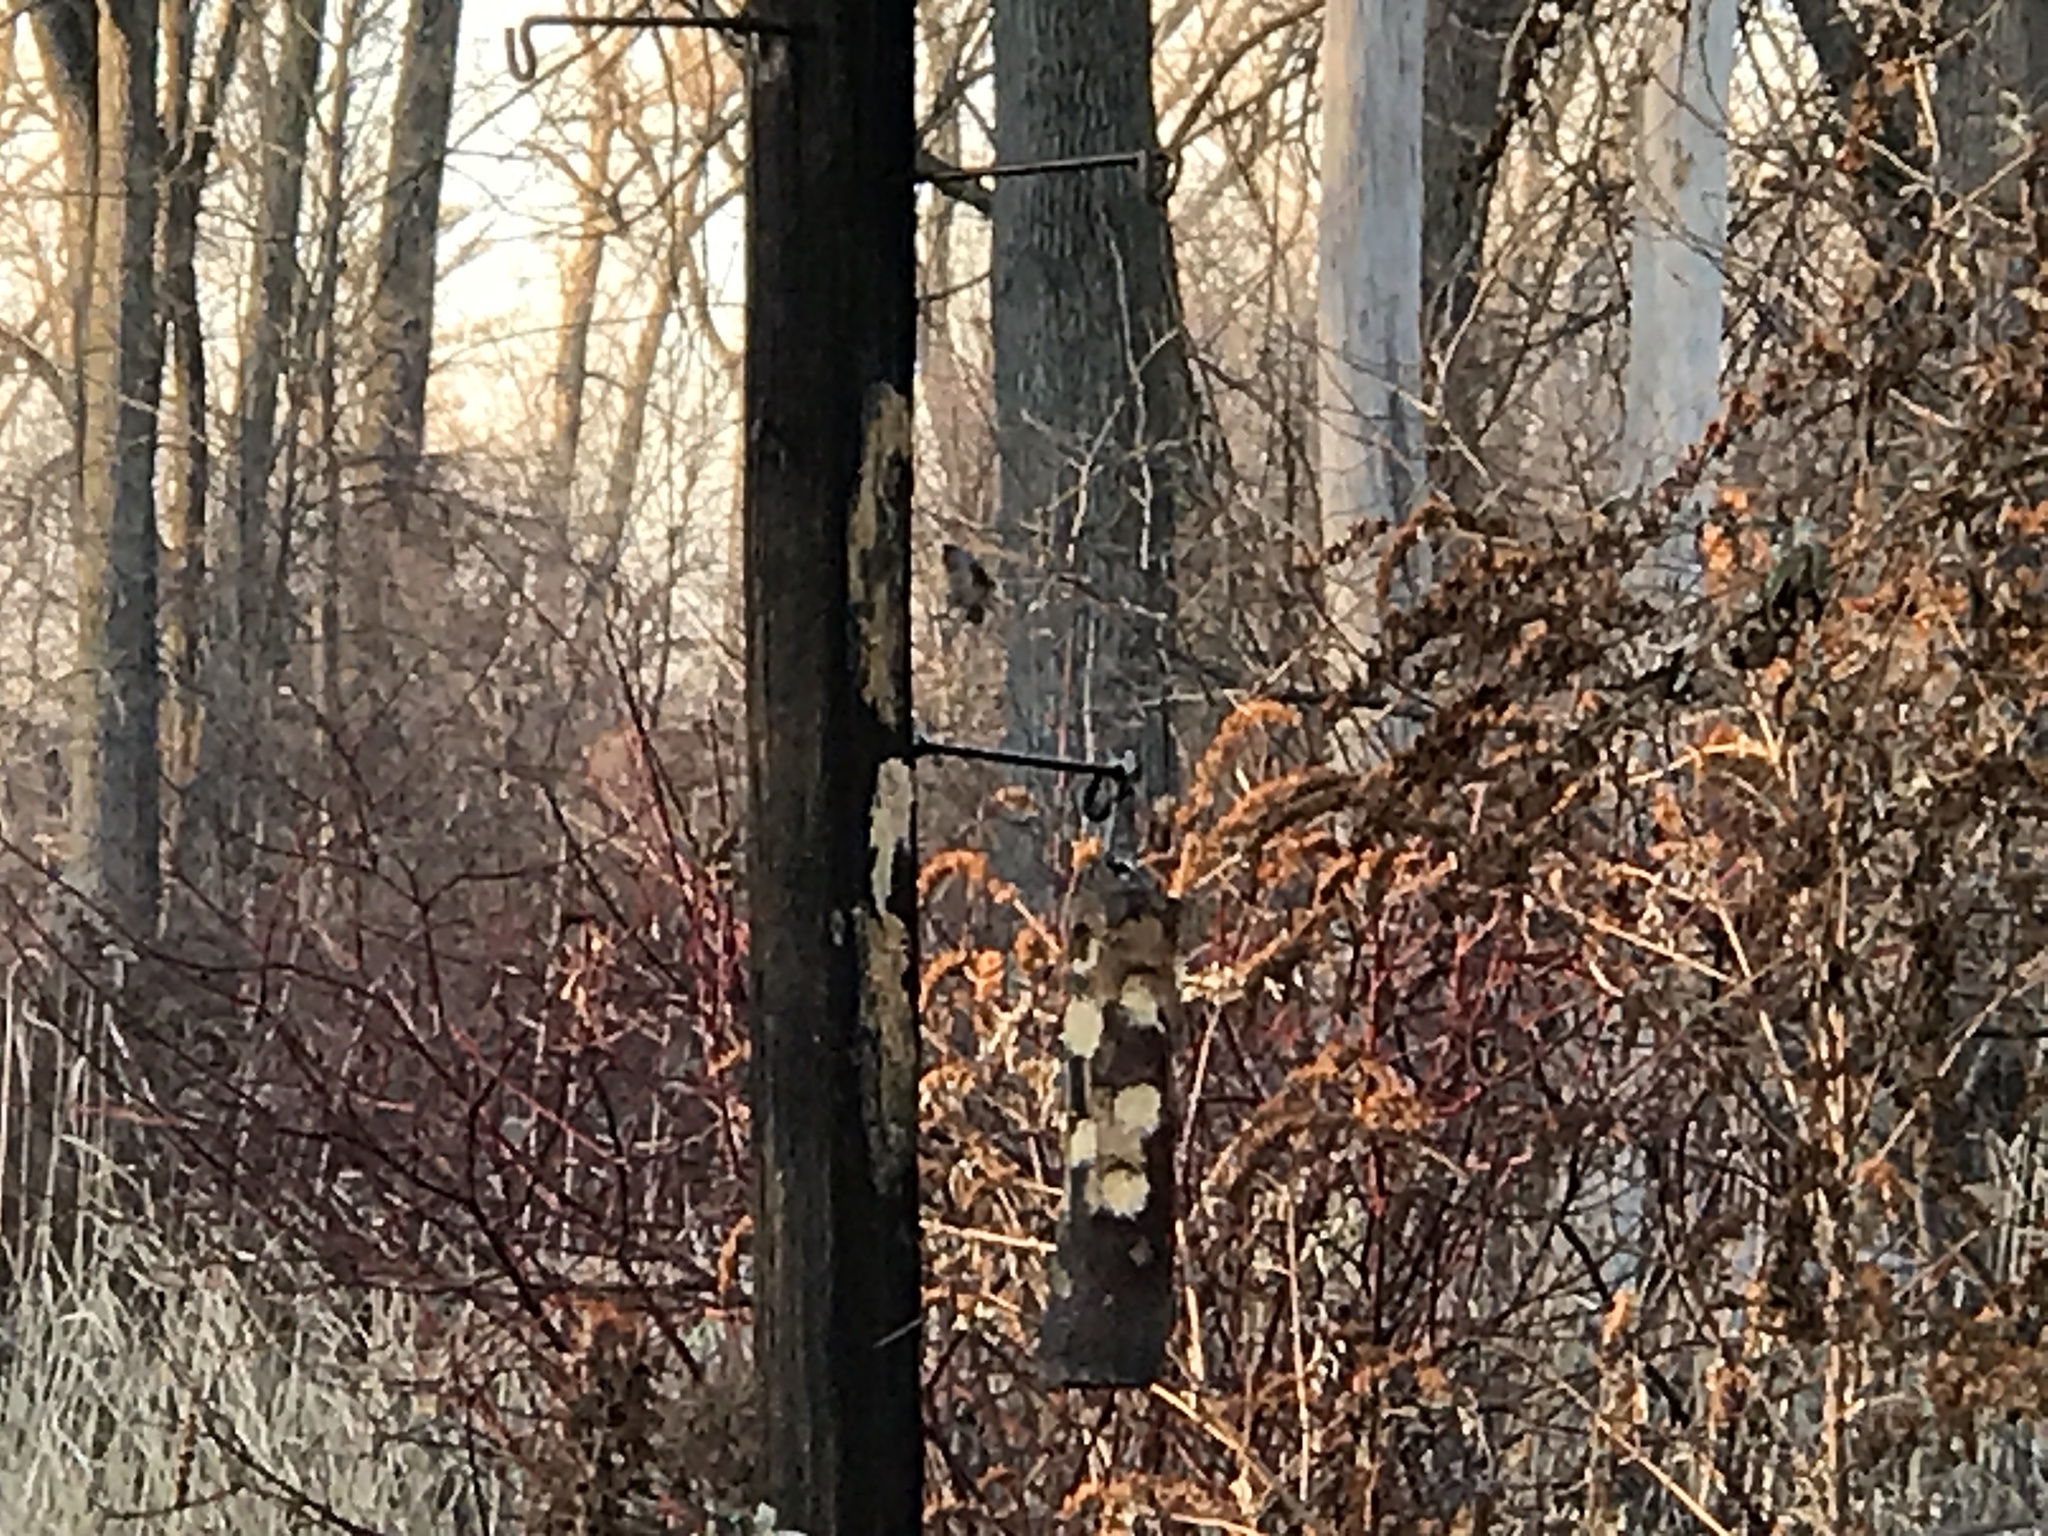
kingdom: Animalia
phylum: Chordata
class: Aves
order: Passeriformes
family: Paridae
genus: Baeolophus
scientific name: Baeolophus bicolor
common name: Tufted titmouse
